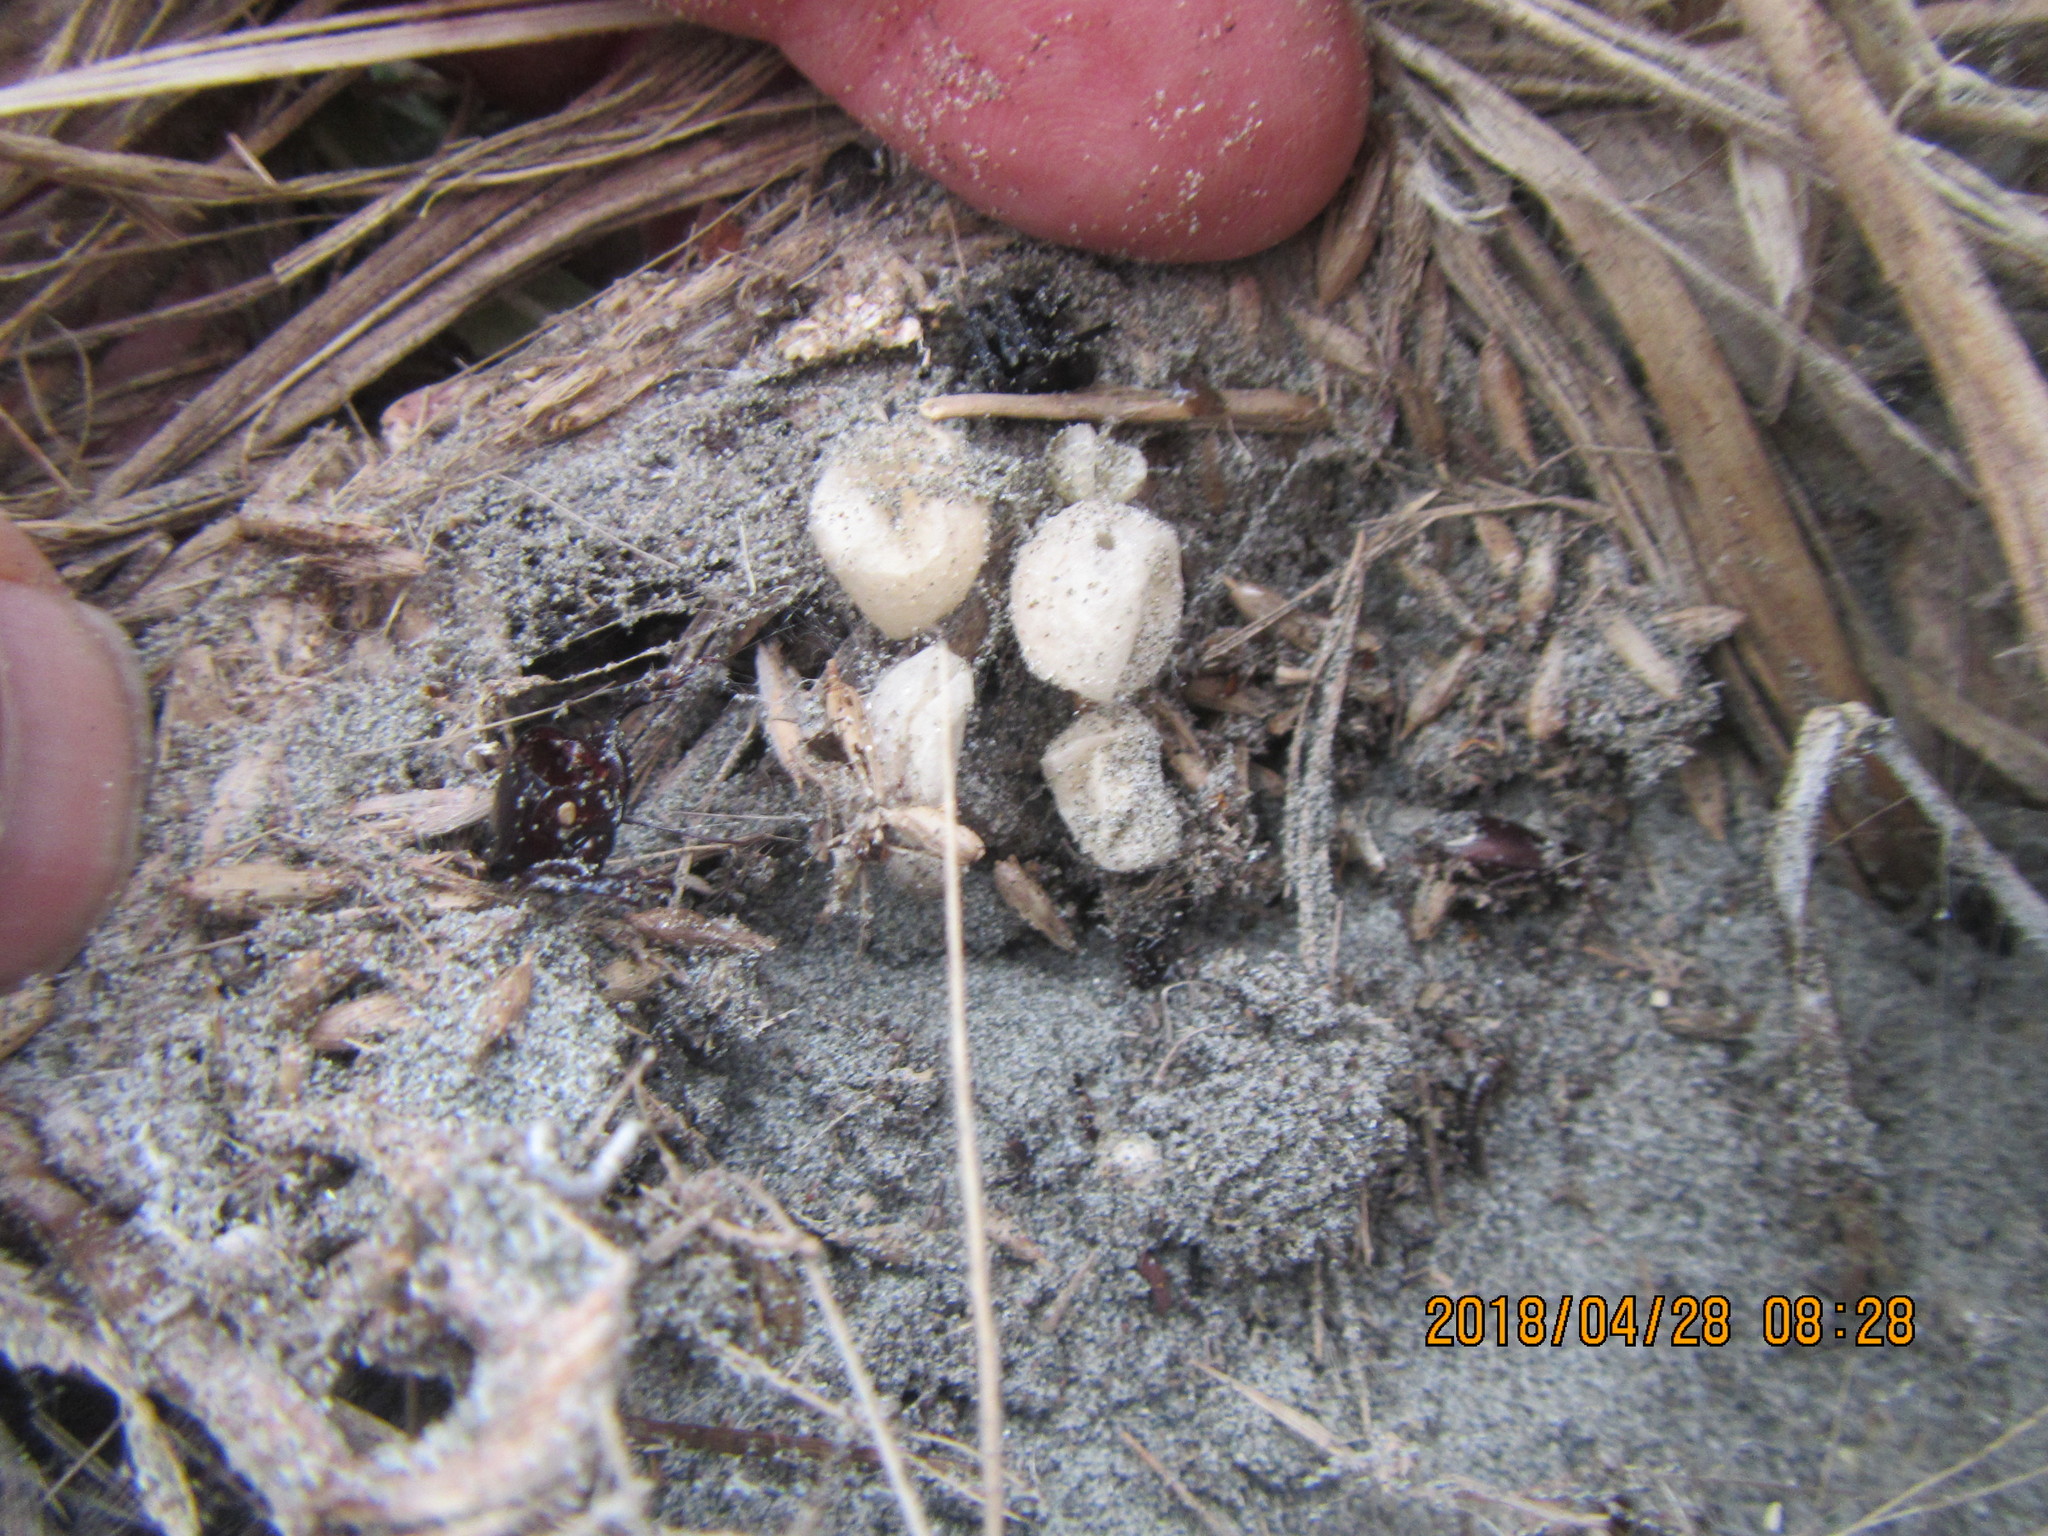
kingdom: Animalia
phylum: Arthropoda
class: Arachnida
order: Araneae
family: Theridiidae
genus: Steatoda
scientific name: Steatoda capensis
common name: Cobweb weaver
